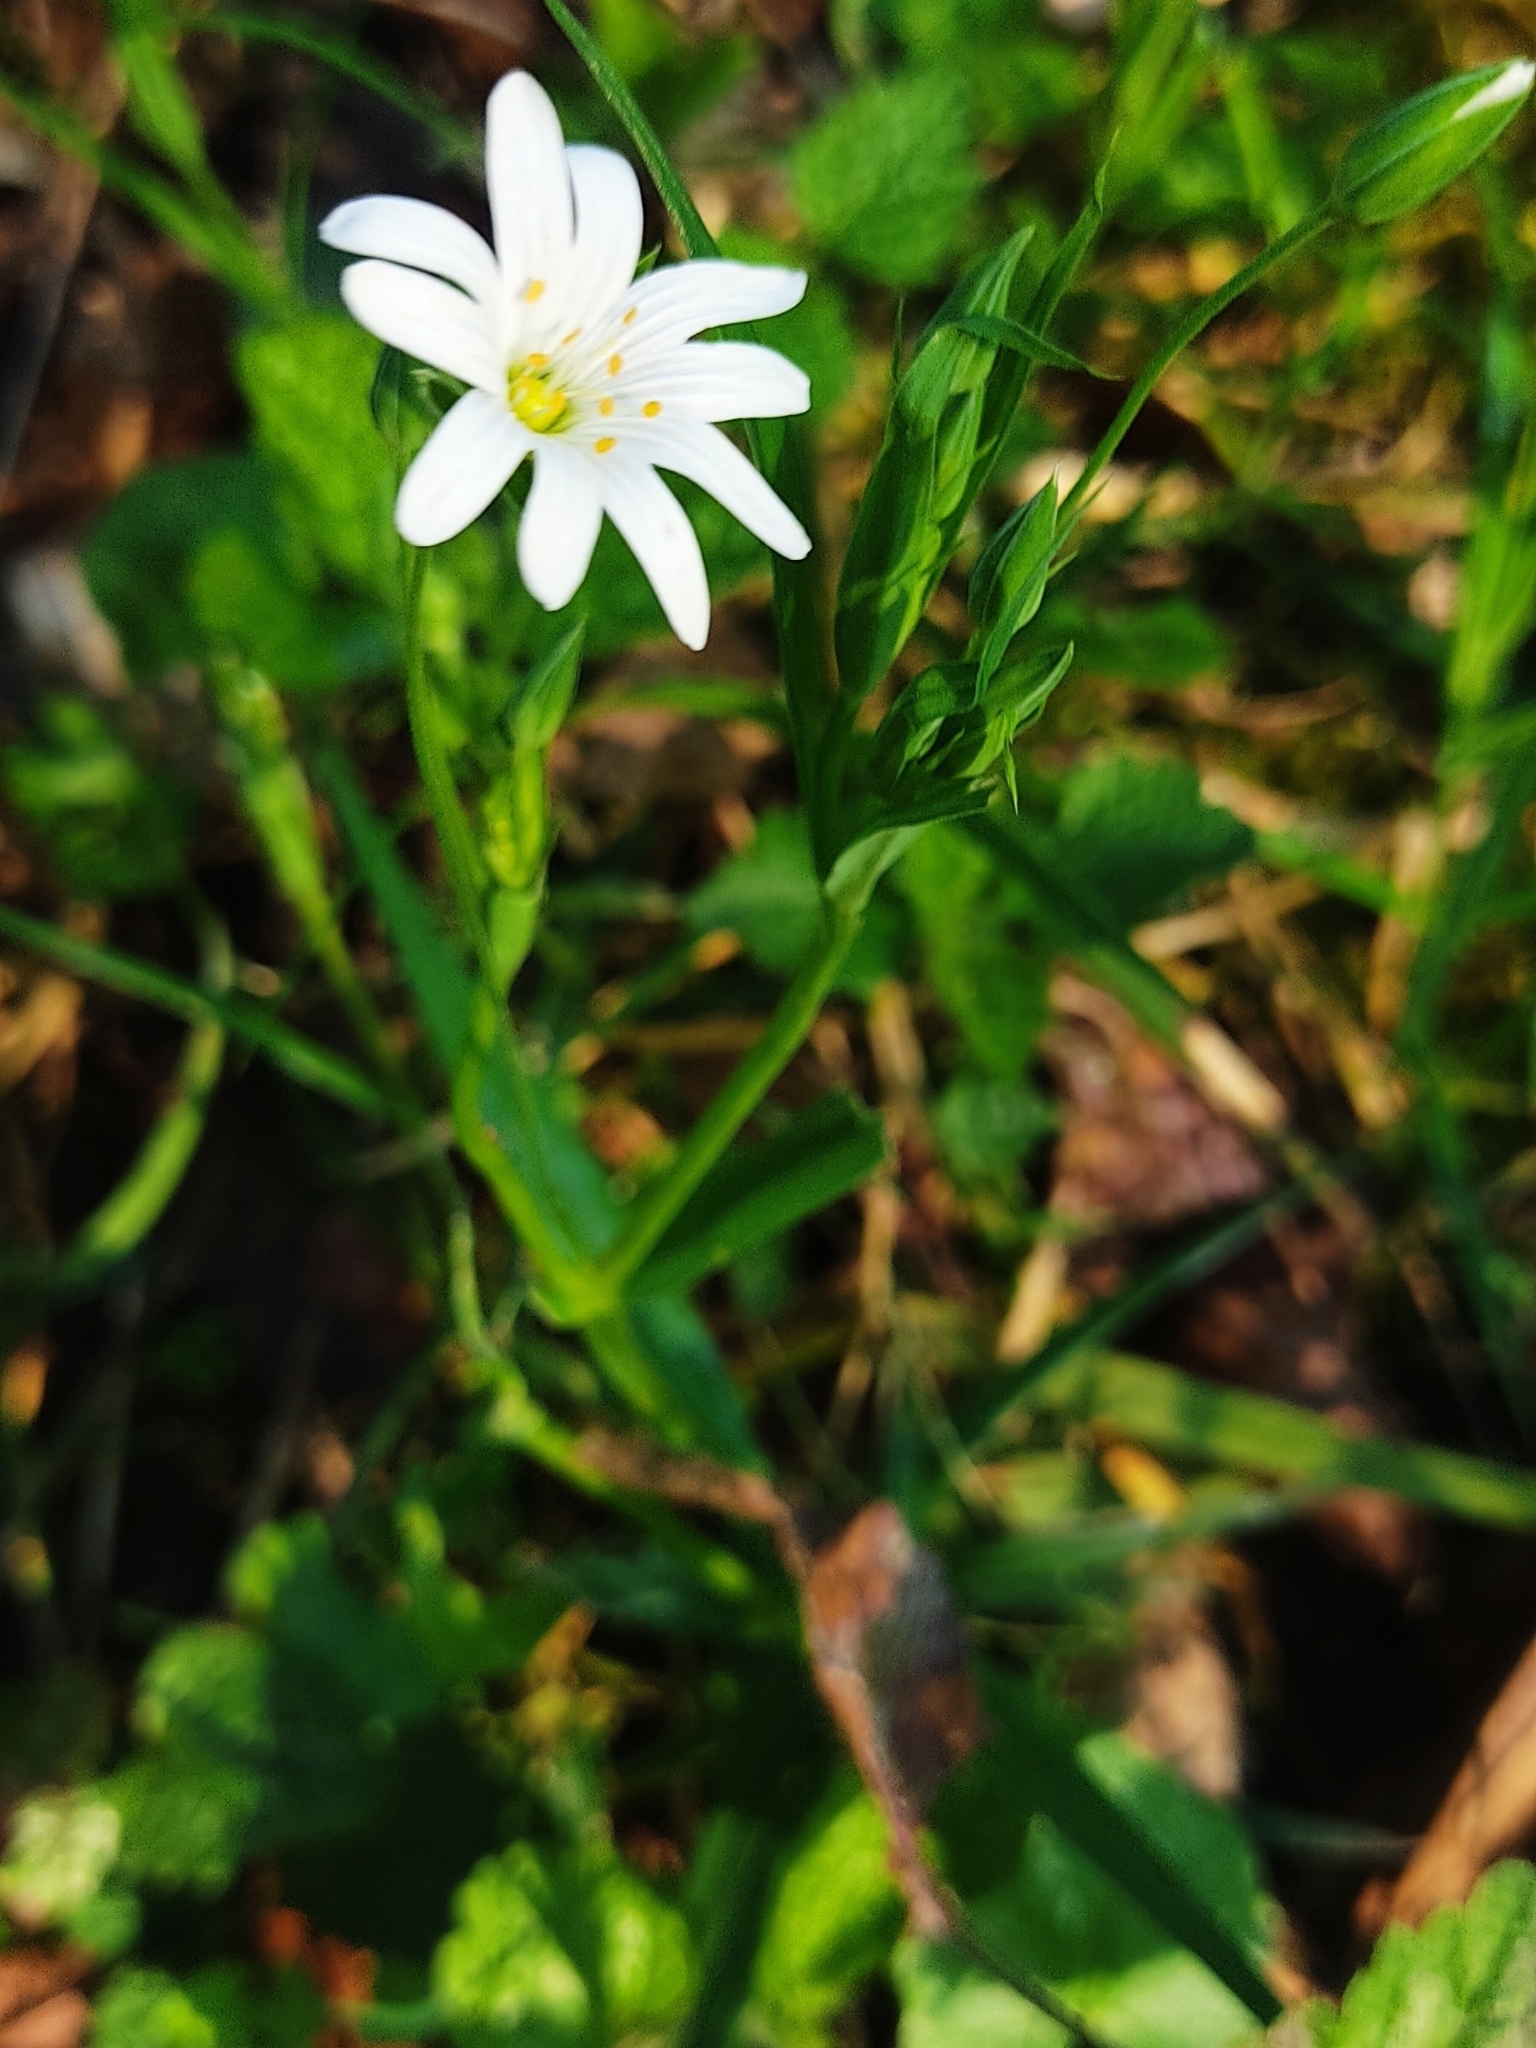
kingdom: Plantae
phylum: Tracheophyta
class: Magnoliopsida
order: Caryophyllales
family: Caryophyllaceae
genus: Rabelera
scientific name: Rabelera holostea
